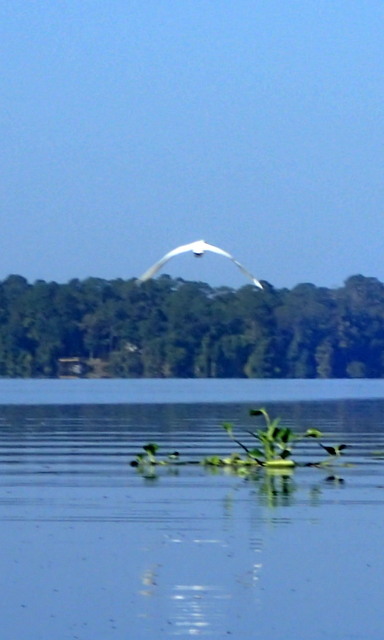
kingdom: Animalia
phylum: Chordata
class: Aves
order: Pelecaniformes
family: Ardeidae
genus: Ardea
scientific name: Ardea alba
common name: Great egret
